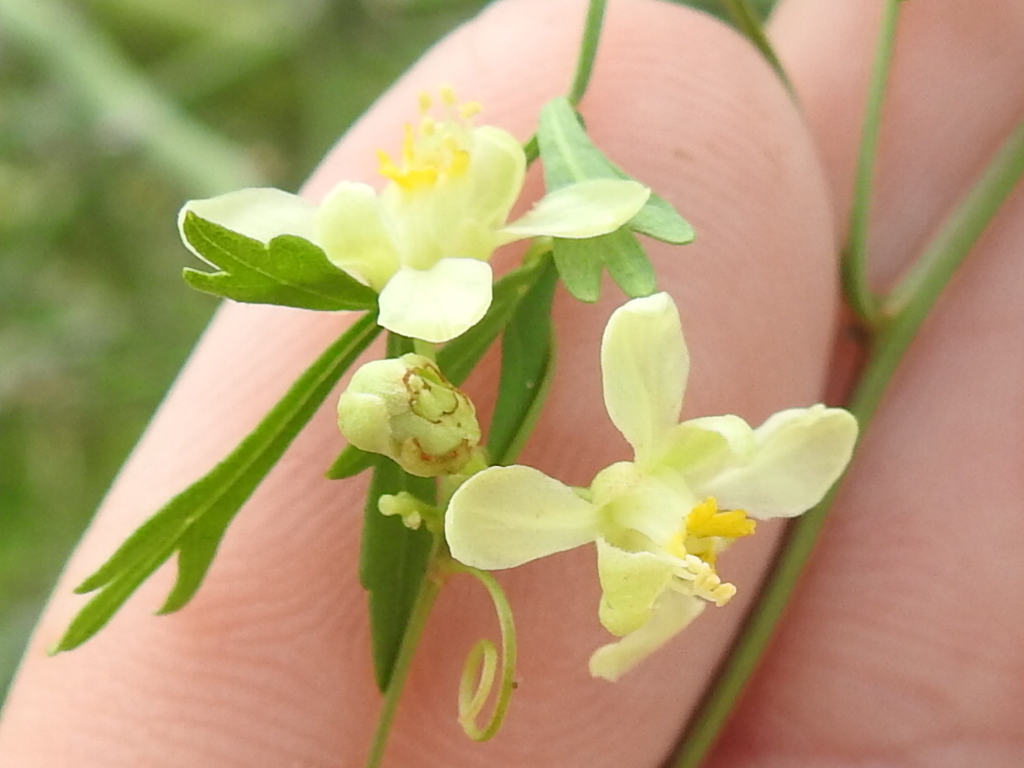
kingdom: Plantae
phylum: Tracheophyta
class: Magnoliopsida
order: Sapindales
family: Sapindaceae
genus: Serjania
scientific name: Serjania dissecta
